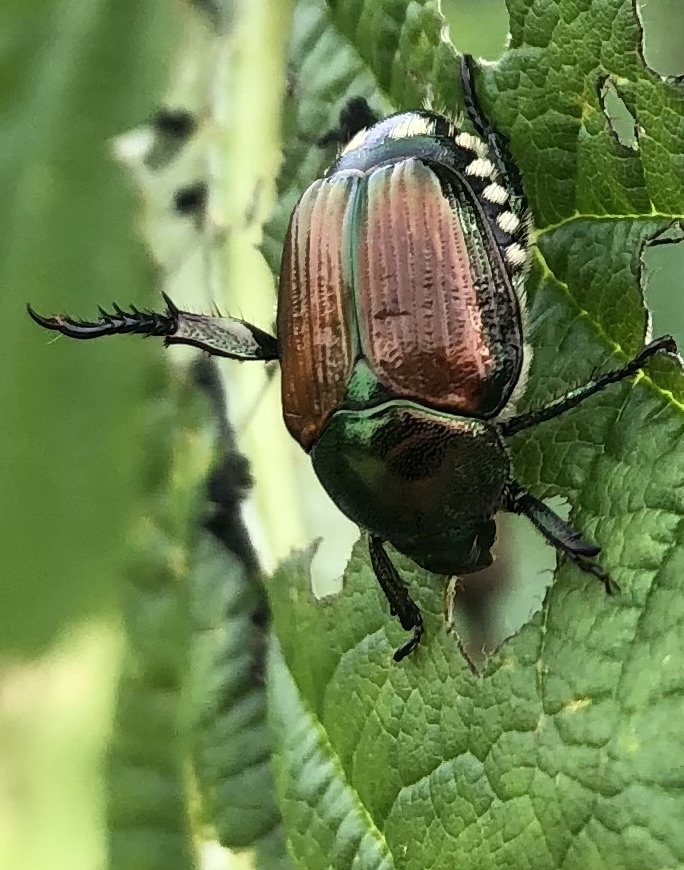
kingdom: Animalia
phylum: Arthropoda
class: Insecta
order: Coleoptera
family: Scarabaeidae
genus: Popillia
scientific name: Popillia japonica
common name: Japanese beetle
